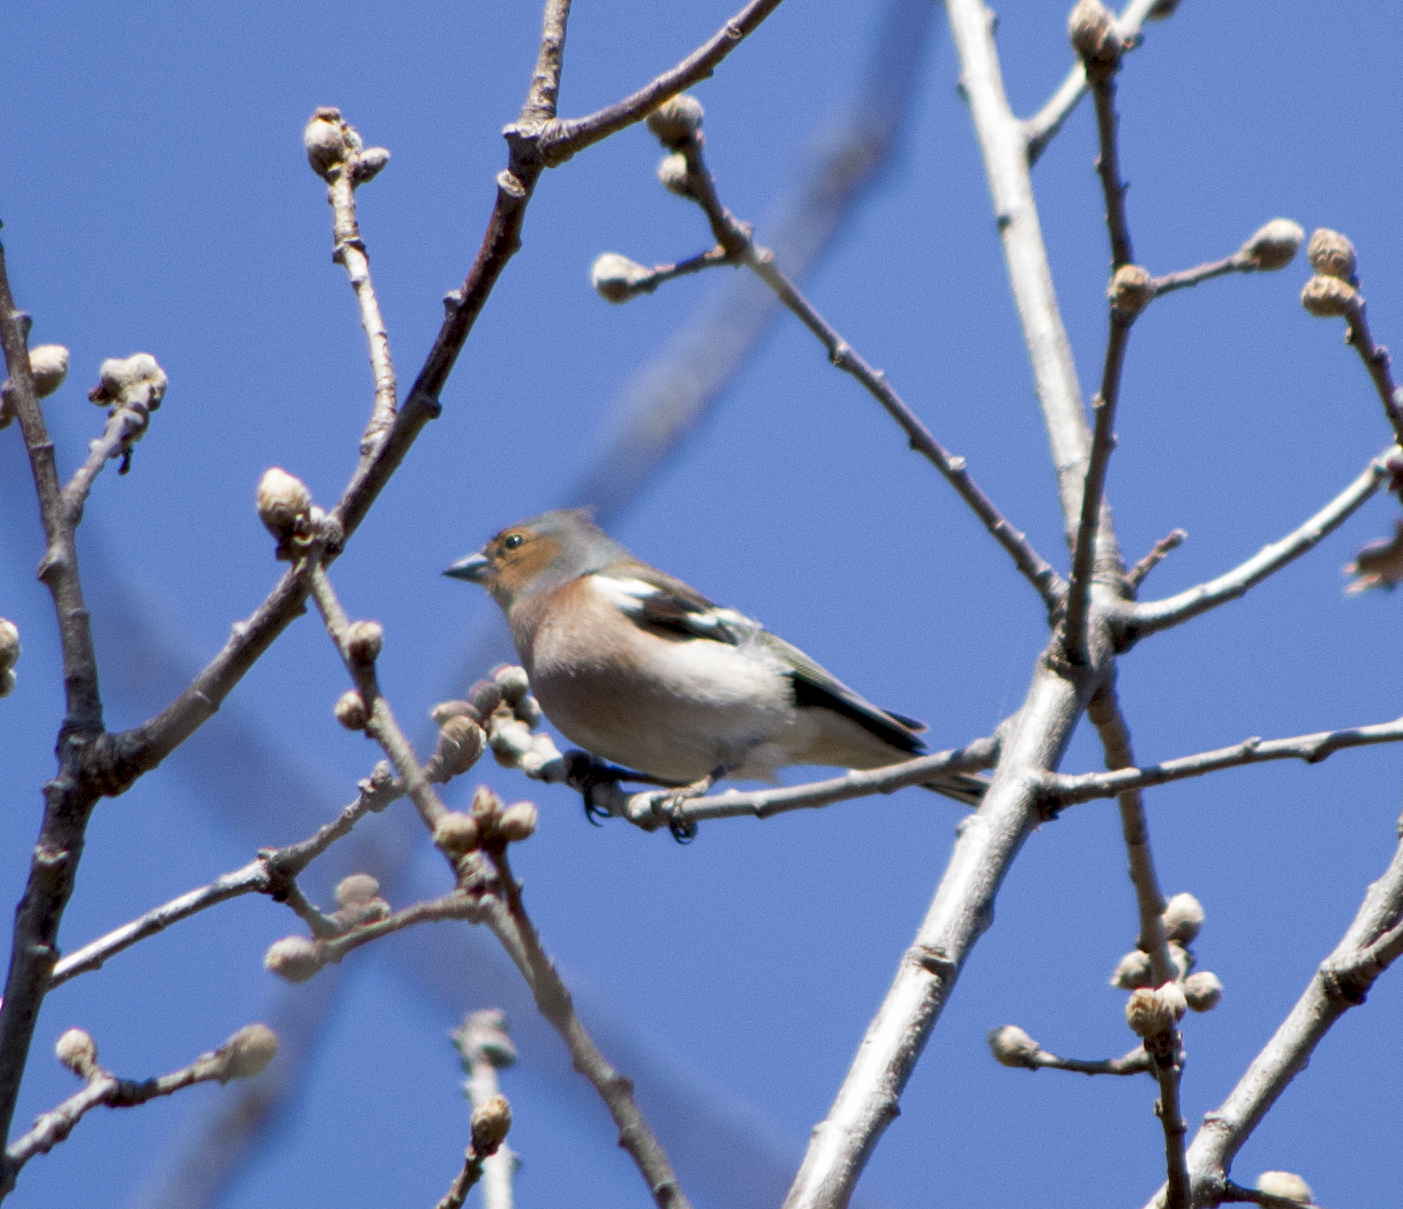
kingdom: Animalia
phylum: Chordata
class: Aves
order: Passeriformes
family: Fringillidae
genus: Fringilla
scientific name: Fringilla coelebs
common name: Common chaffinch
